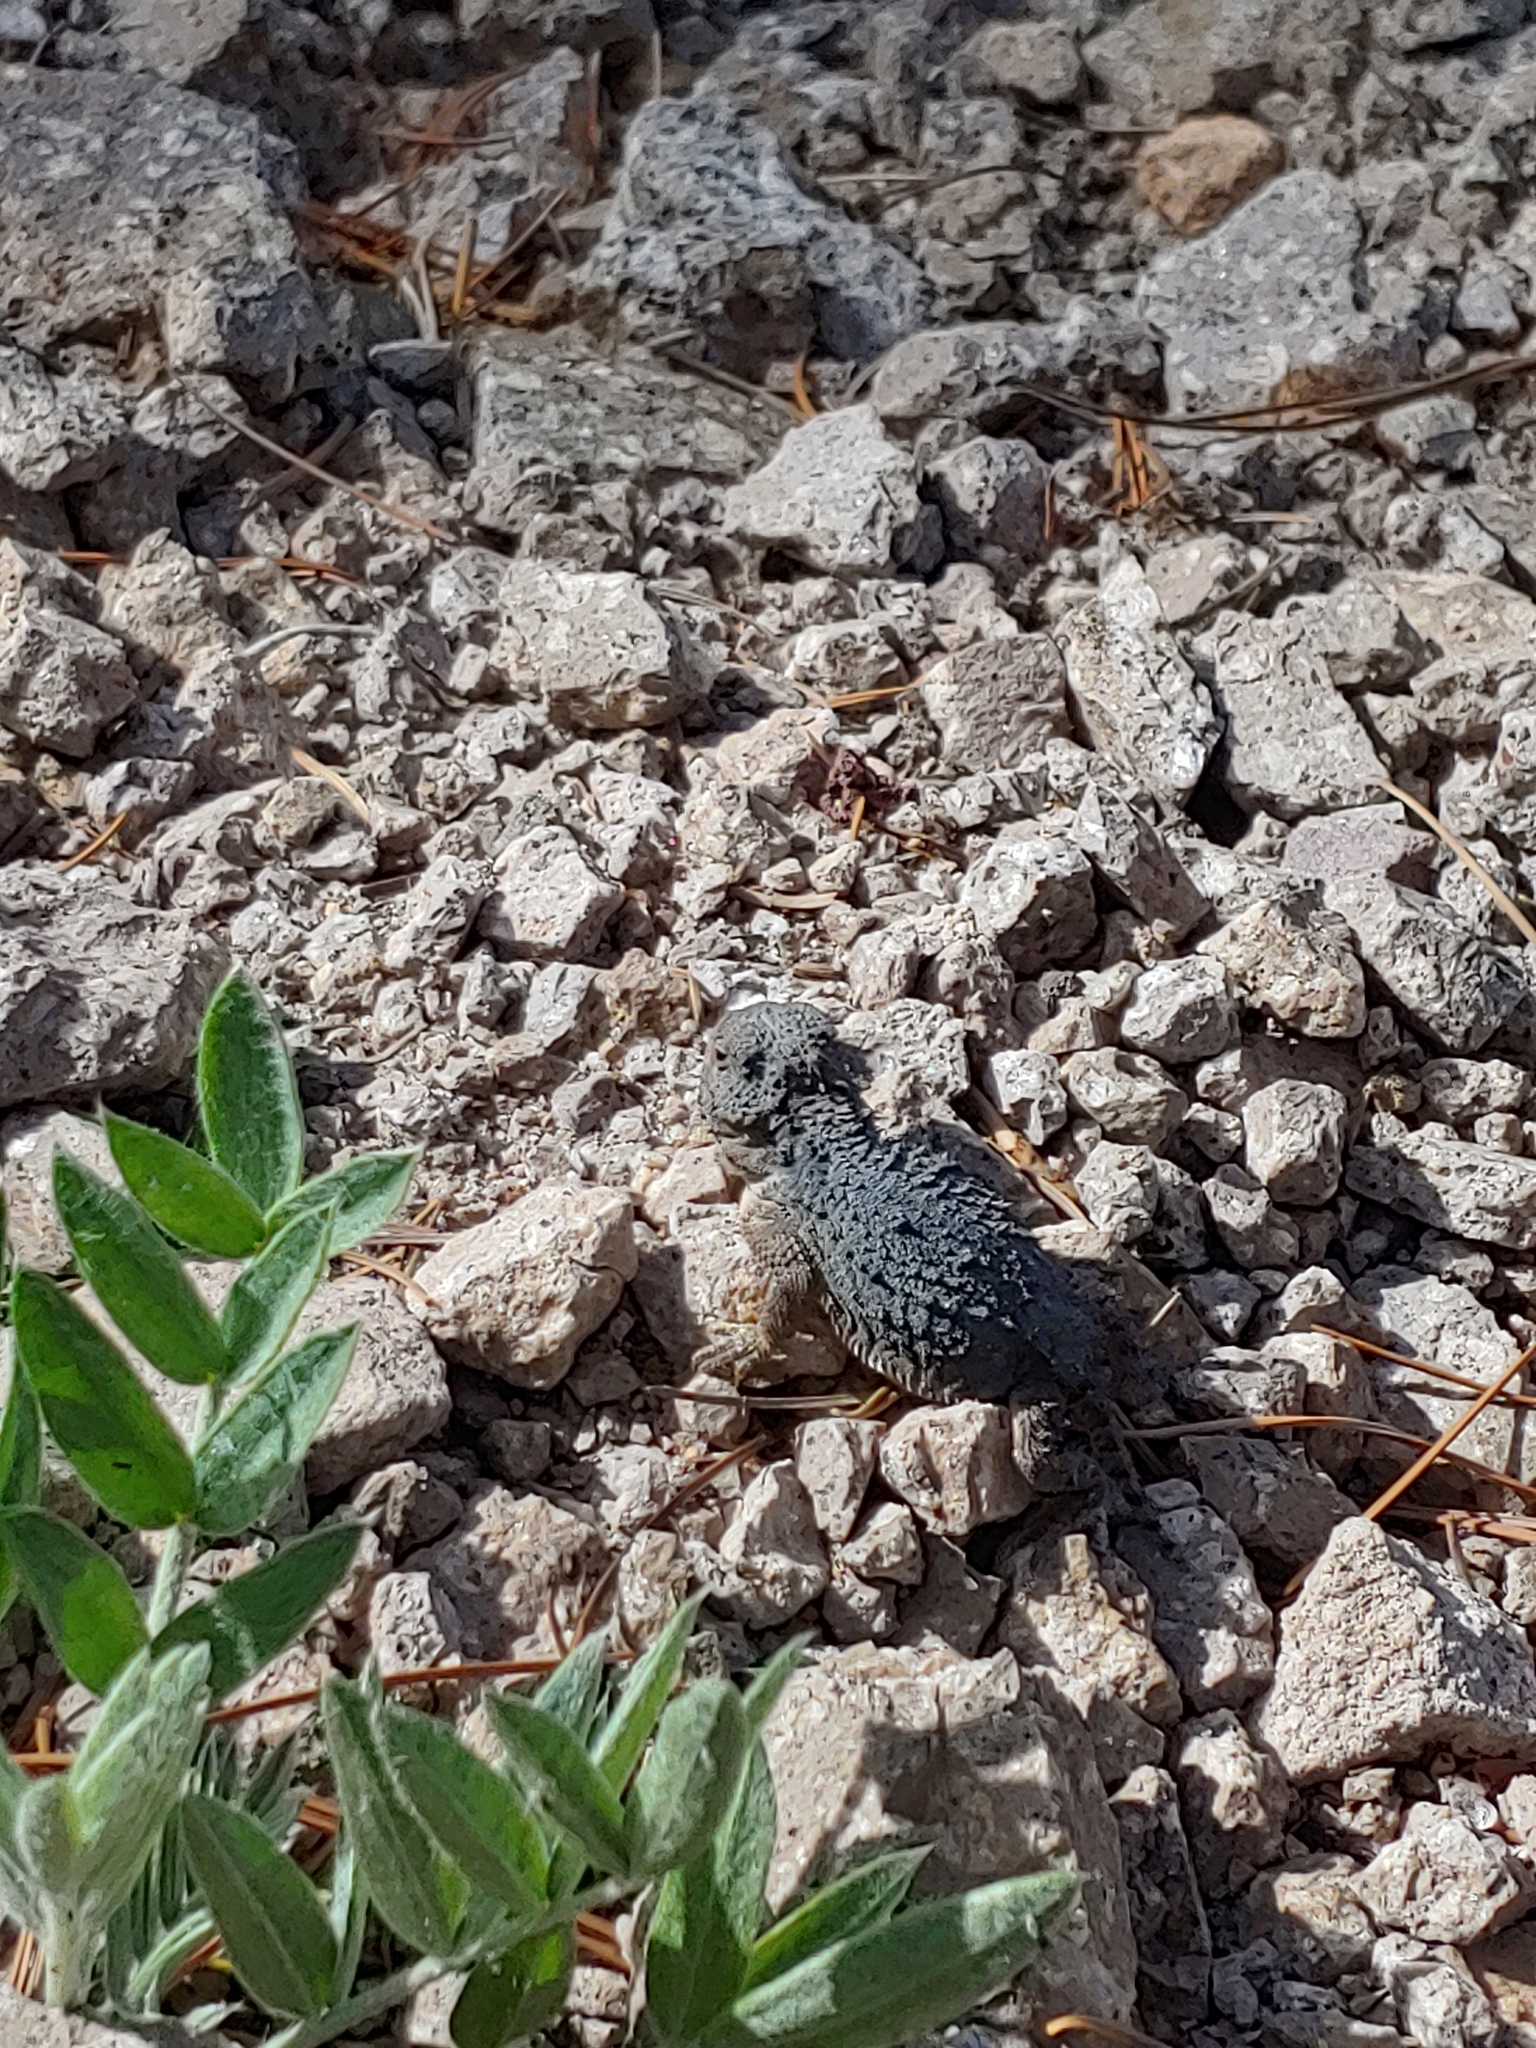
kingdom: Animalia
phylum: Chordata
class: Squamata
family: Phrynosomatidae
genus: Phrynosoma
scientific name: Phrynosoma hernandesi
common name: Greater short-horned lizard
